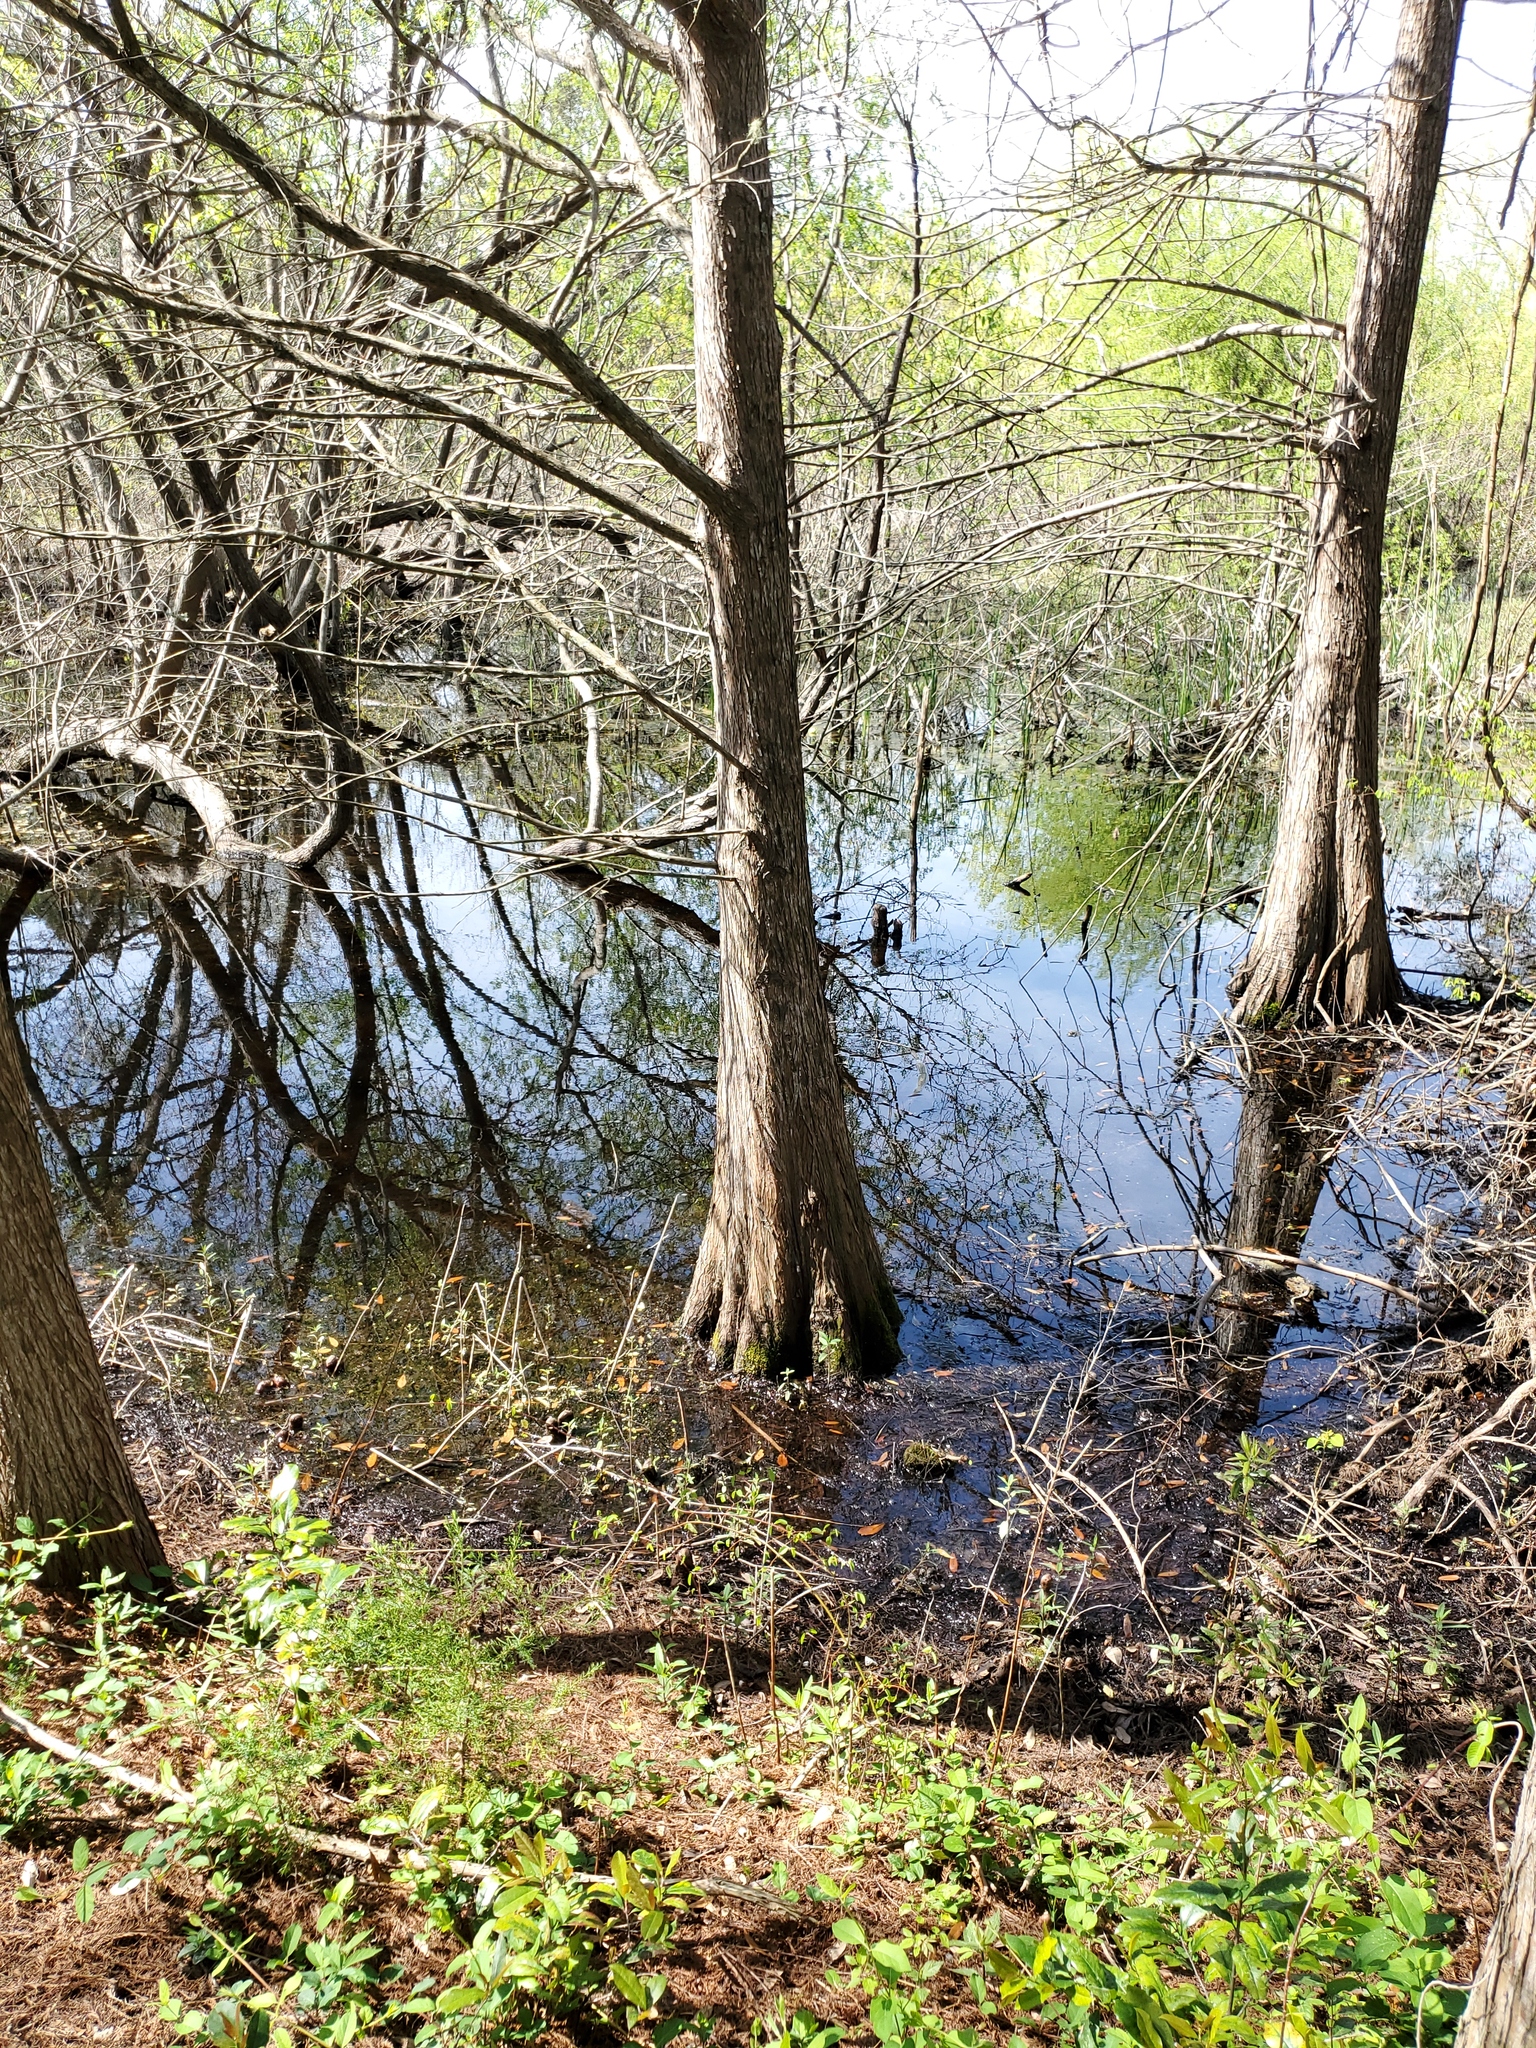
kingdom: Plantae
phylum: Tracheophyta
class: Pinopsida
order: Pinales
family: Cupressaceae
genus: Taxodium
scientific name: Taxodium distichum
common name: Bald cypress
